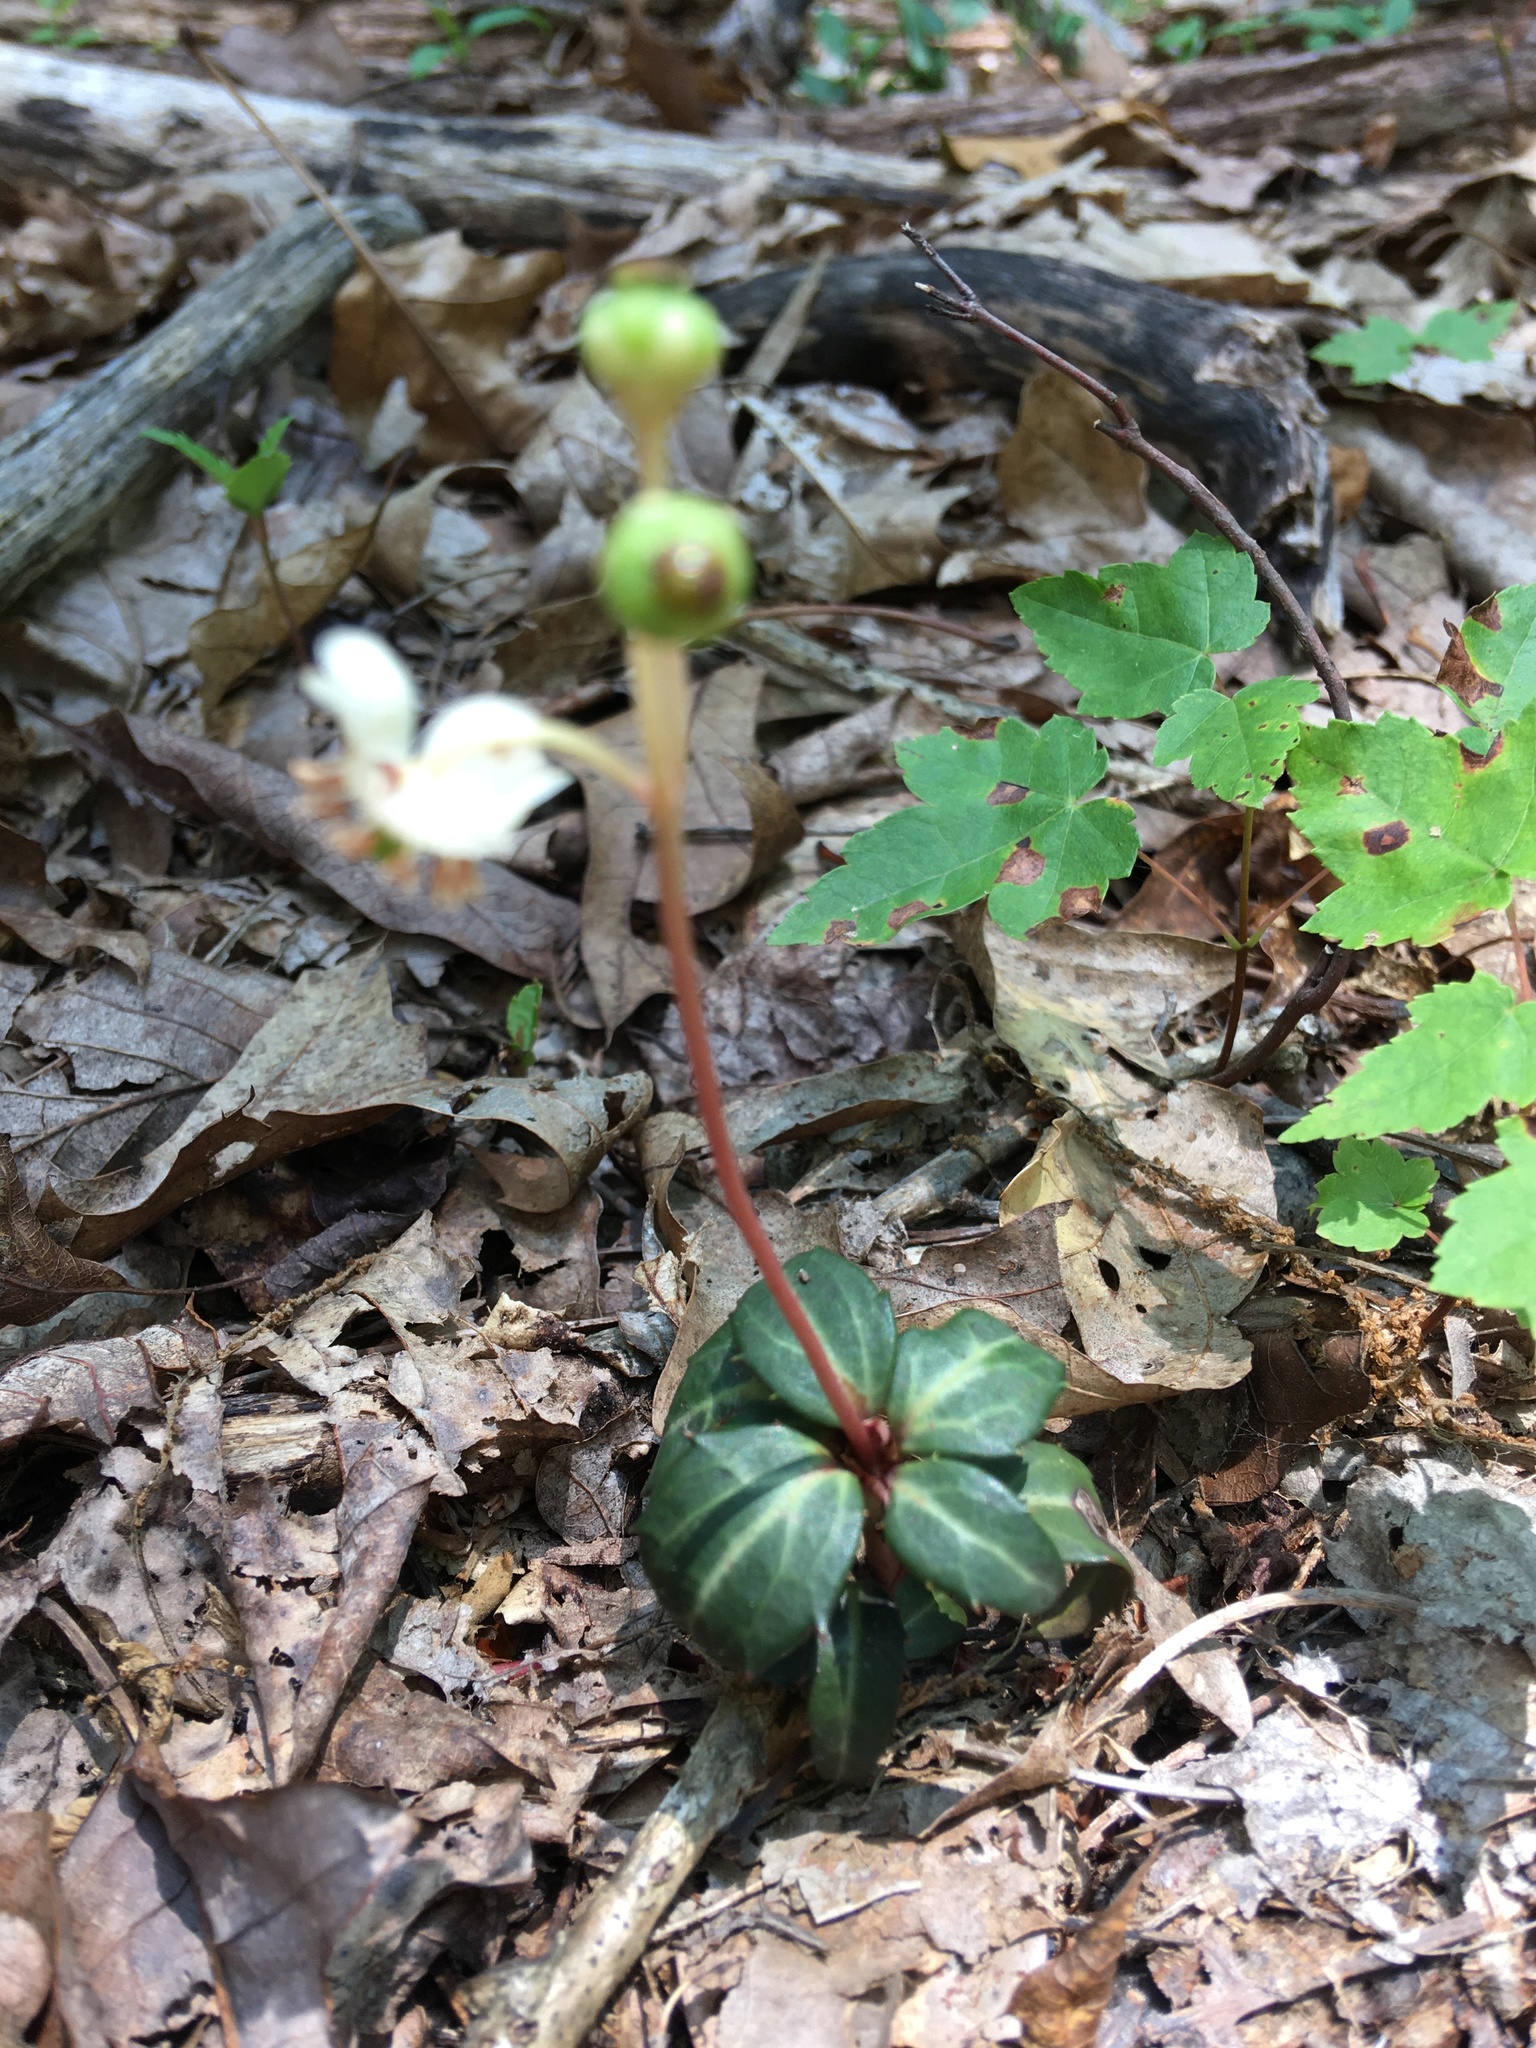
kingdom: Plantae
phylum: Tracheophyta
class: Magnoliopsida
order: Ericales
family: Ericaceae
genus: Chimaphila
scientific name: Chimaphila maculata
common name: Spotted pipsissewa
